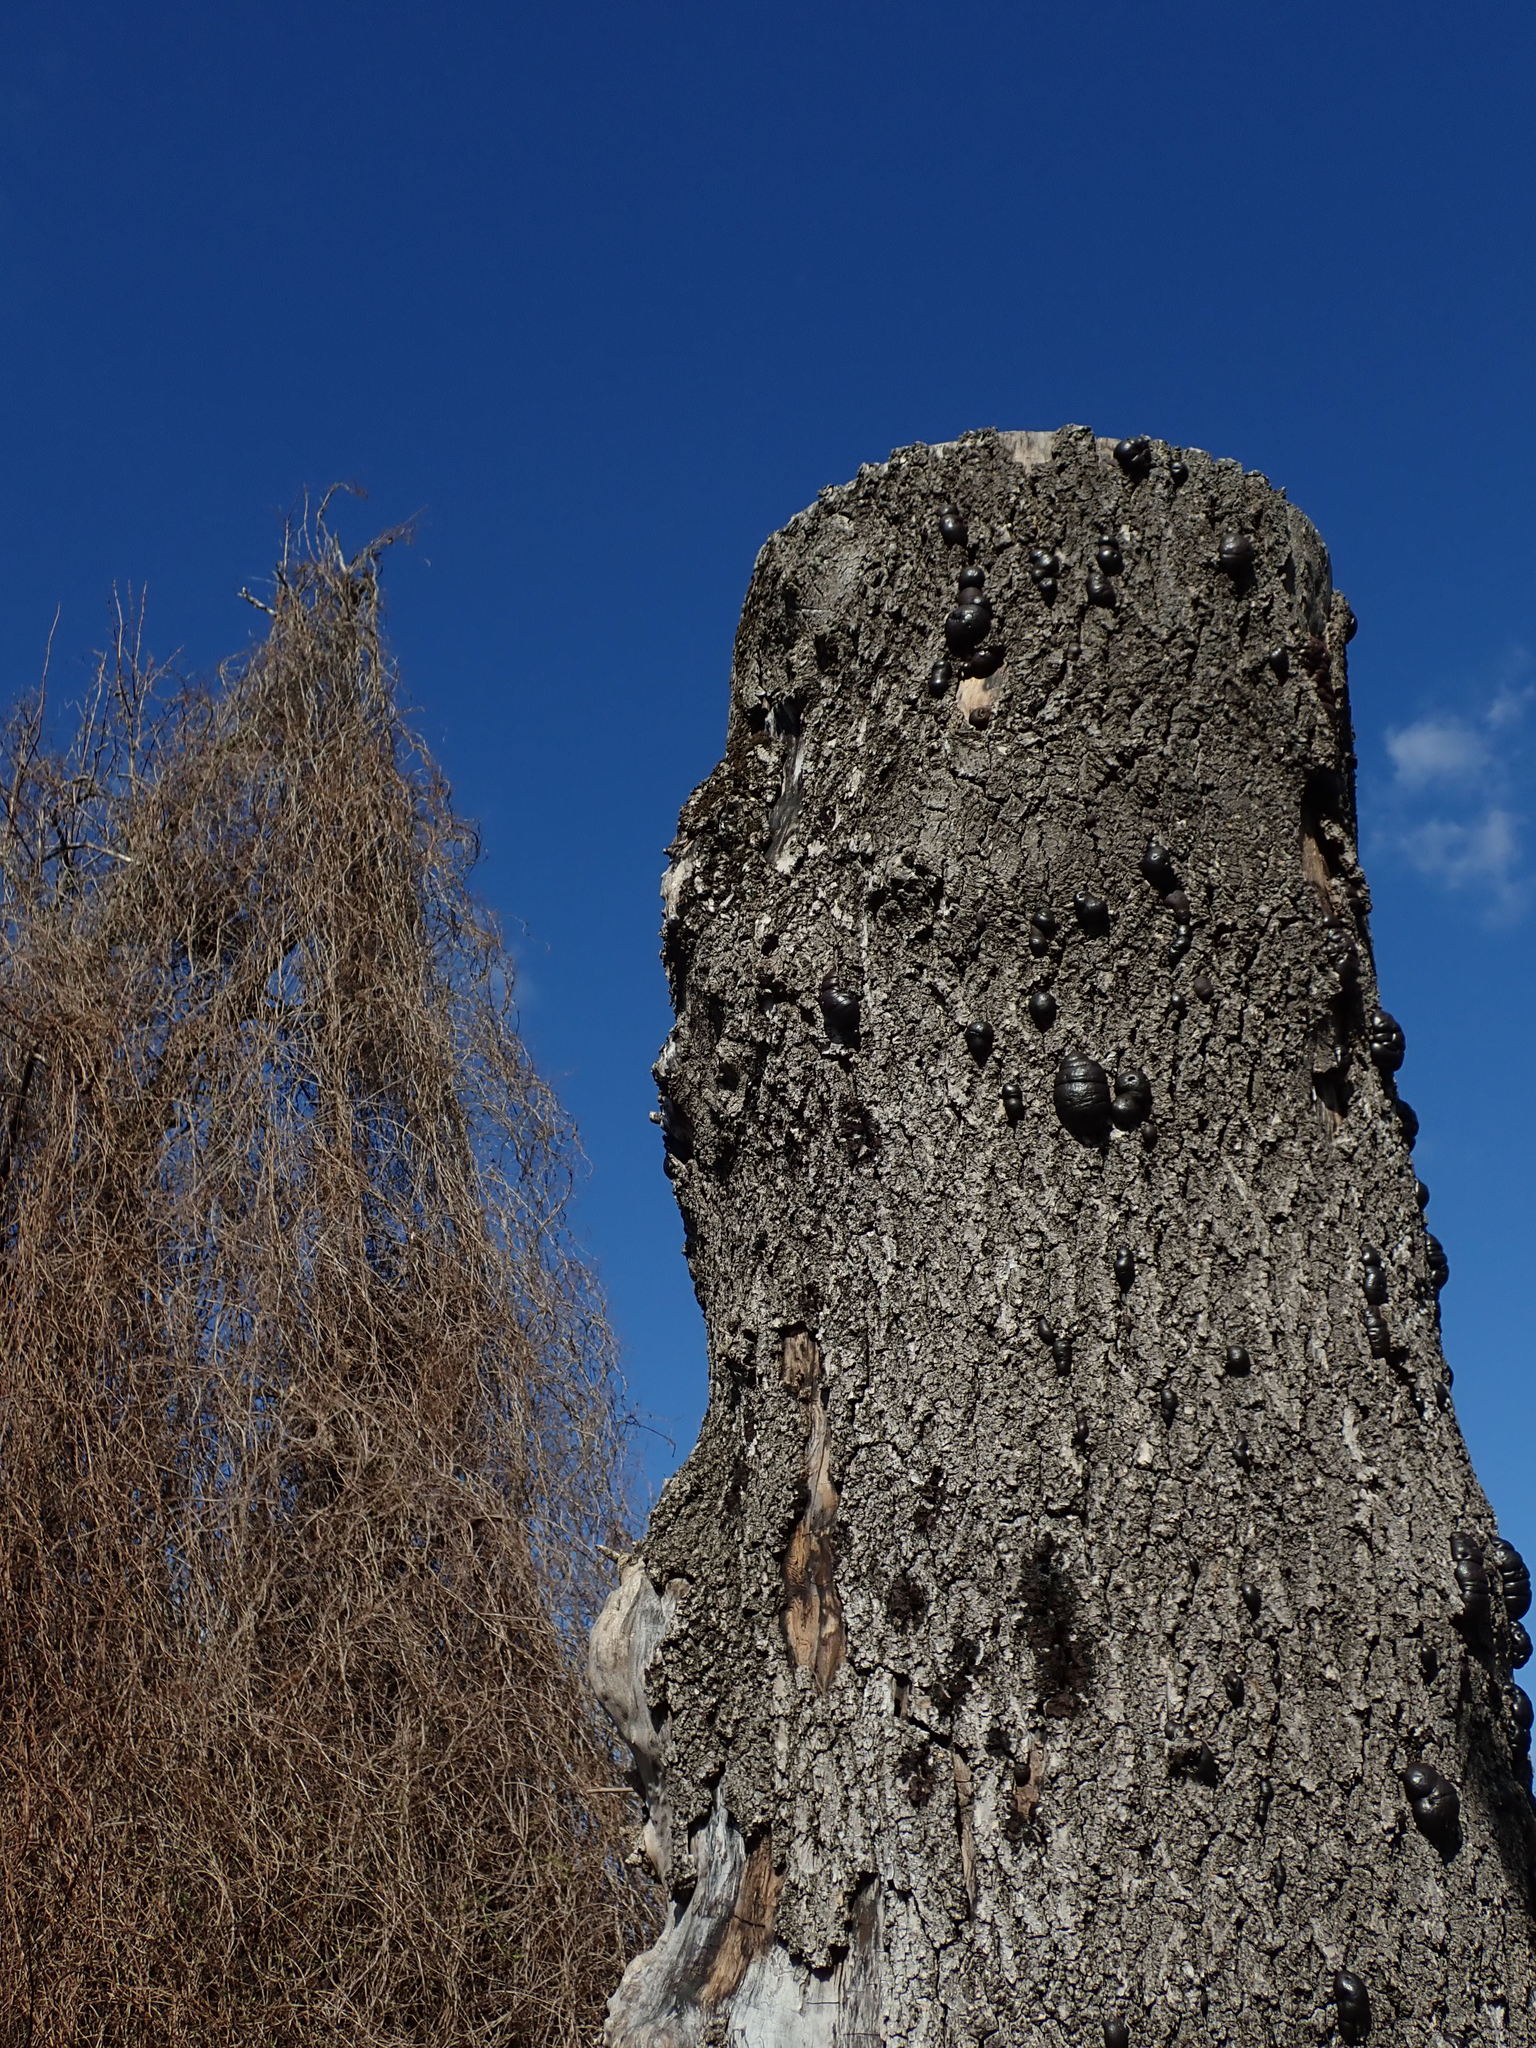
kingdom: Fungi
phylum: Ascomycota
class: Sordariomycetes
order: Xylariales
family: Hypoxylaceae
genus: Daldinia
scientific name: Daldinia concentrica
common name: Cramp balls
